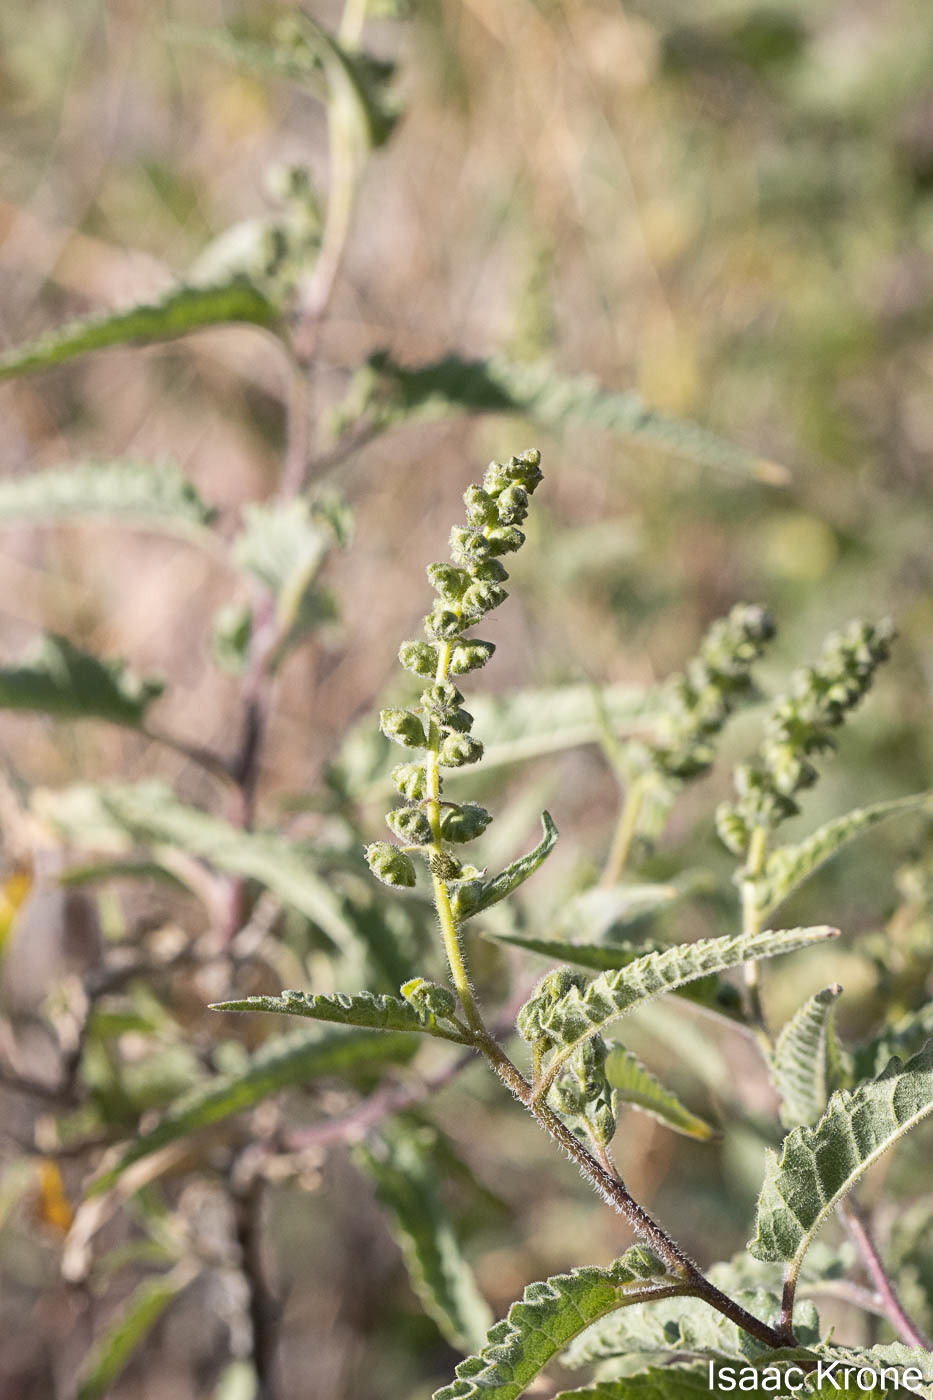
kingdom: Plantae
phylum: Tracheophyta
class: Magnoliopsida
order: Asterales
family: Asteraceae
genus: Ambrosia
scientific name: Ambrosia ambrosioides
